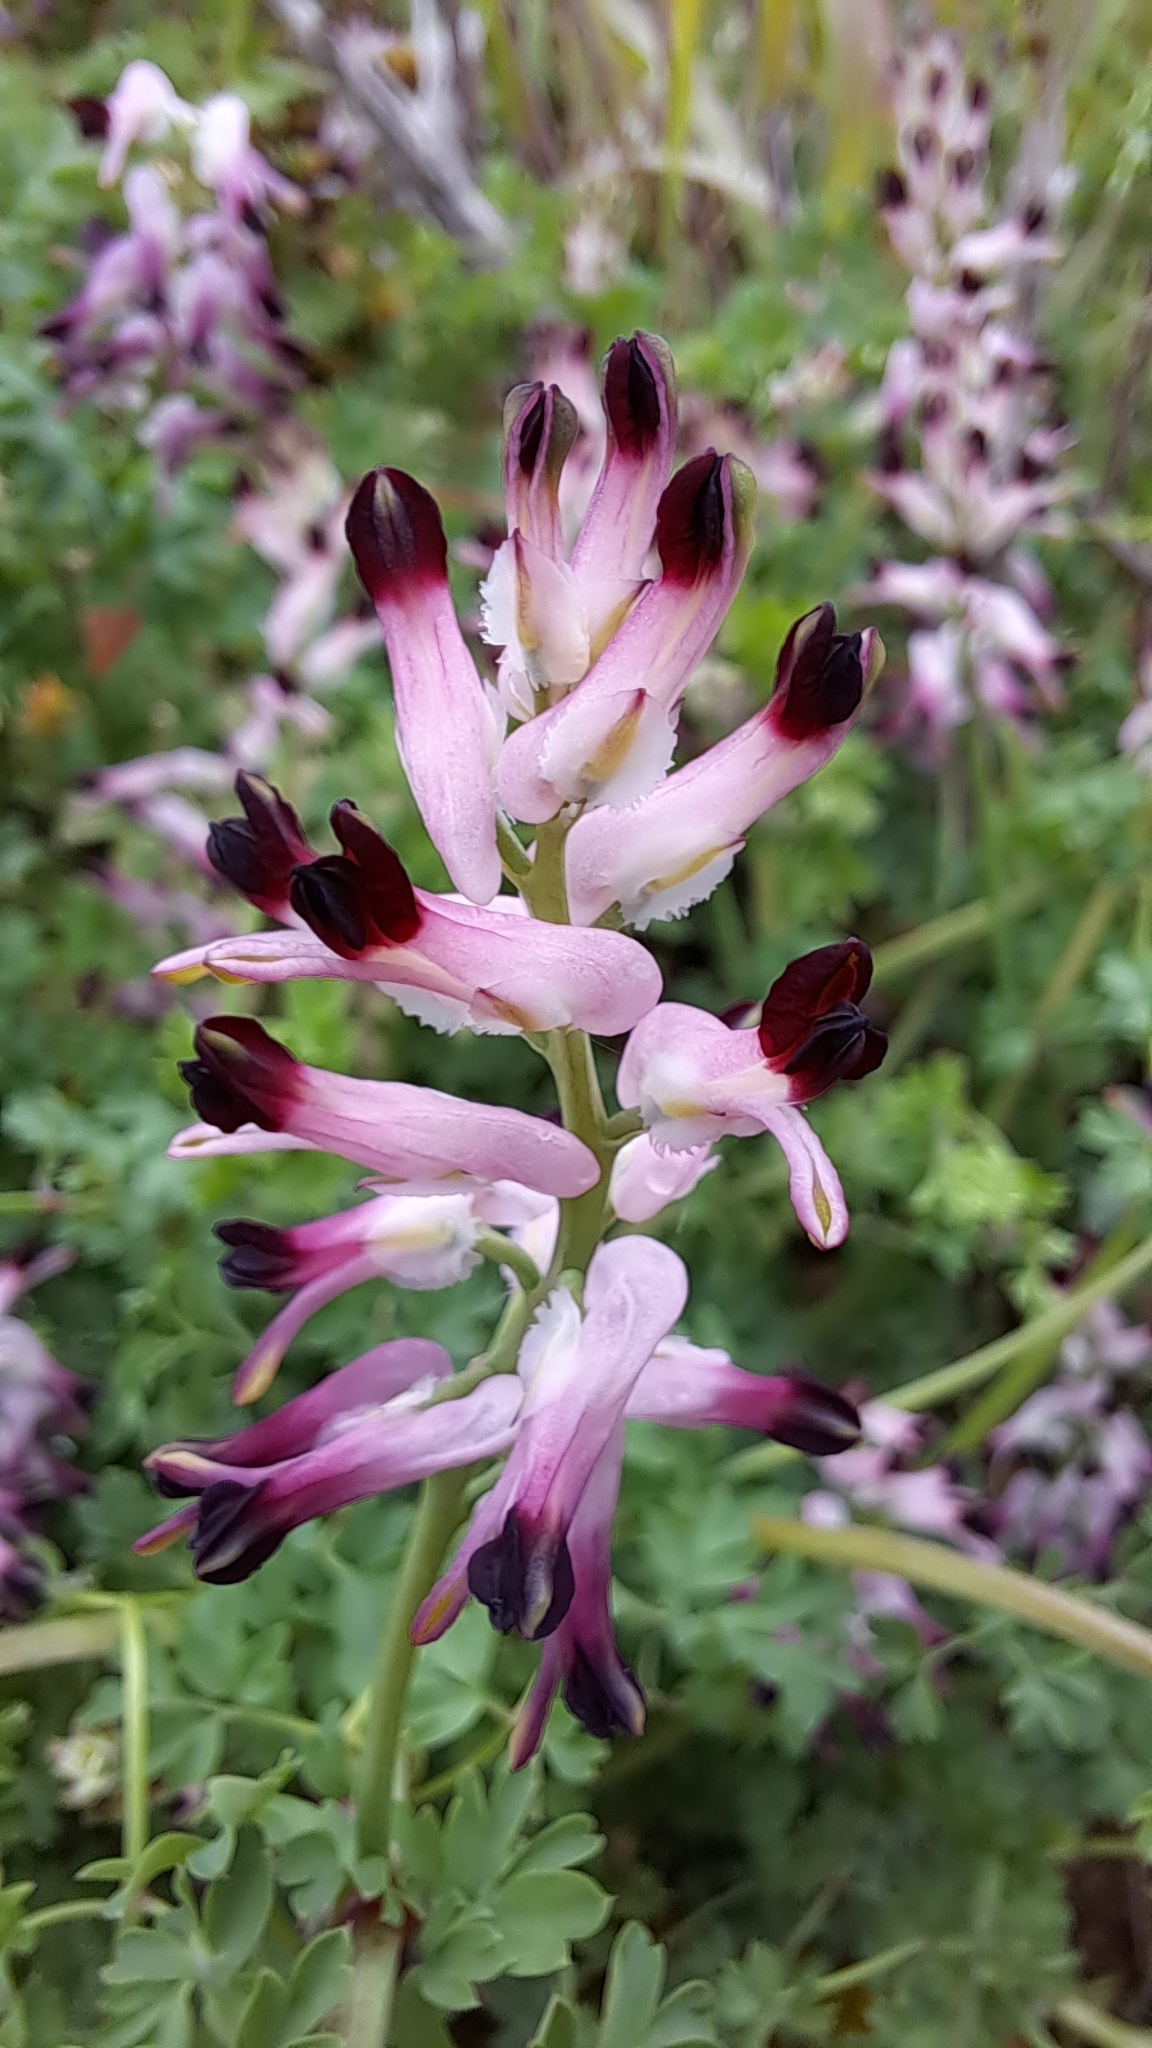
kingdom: Plantae
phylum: Tracheophyta
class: Magnoliopsida
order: Ranunculales
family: Papaveraceae
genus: Fumaria
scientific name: Fumaria muralis
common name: Common ramping-fumitory
